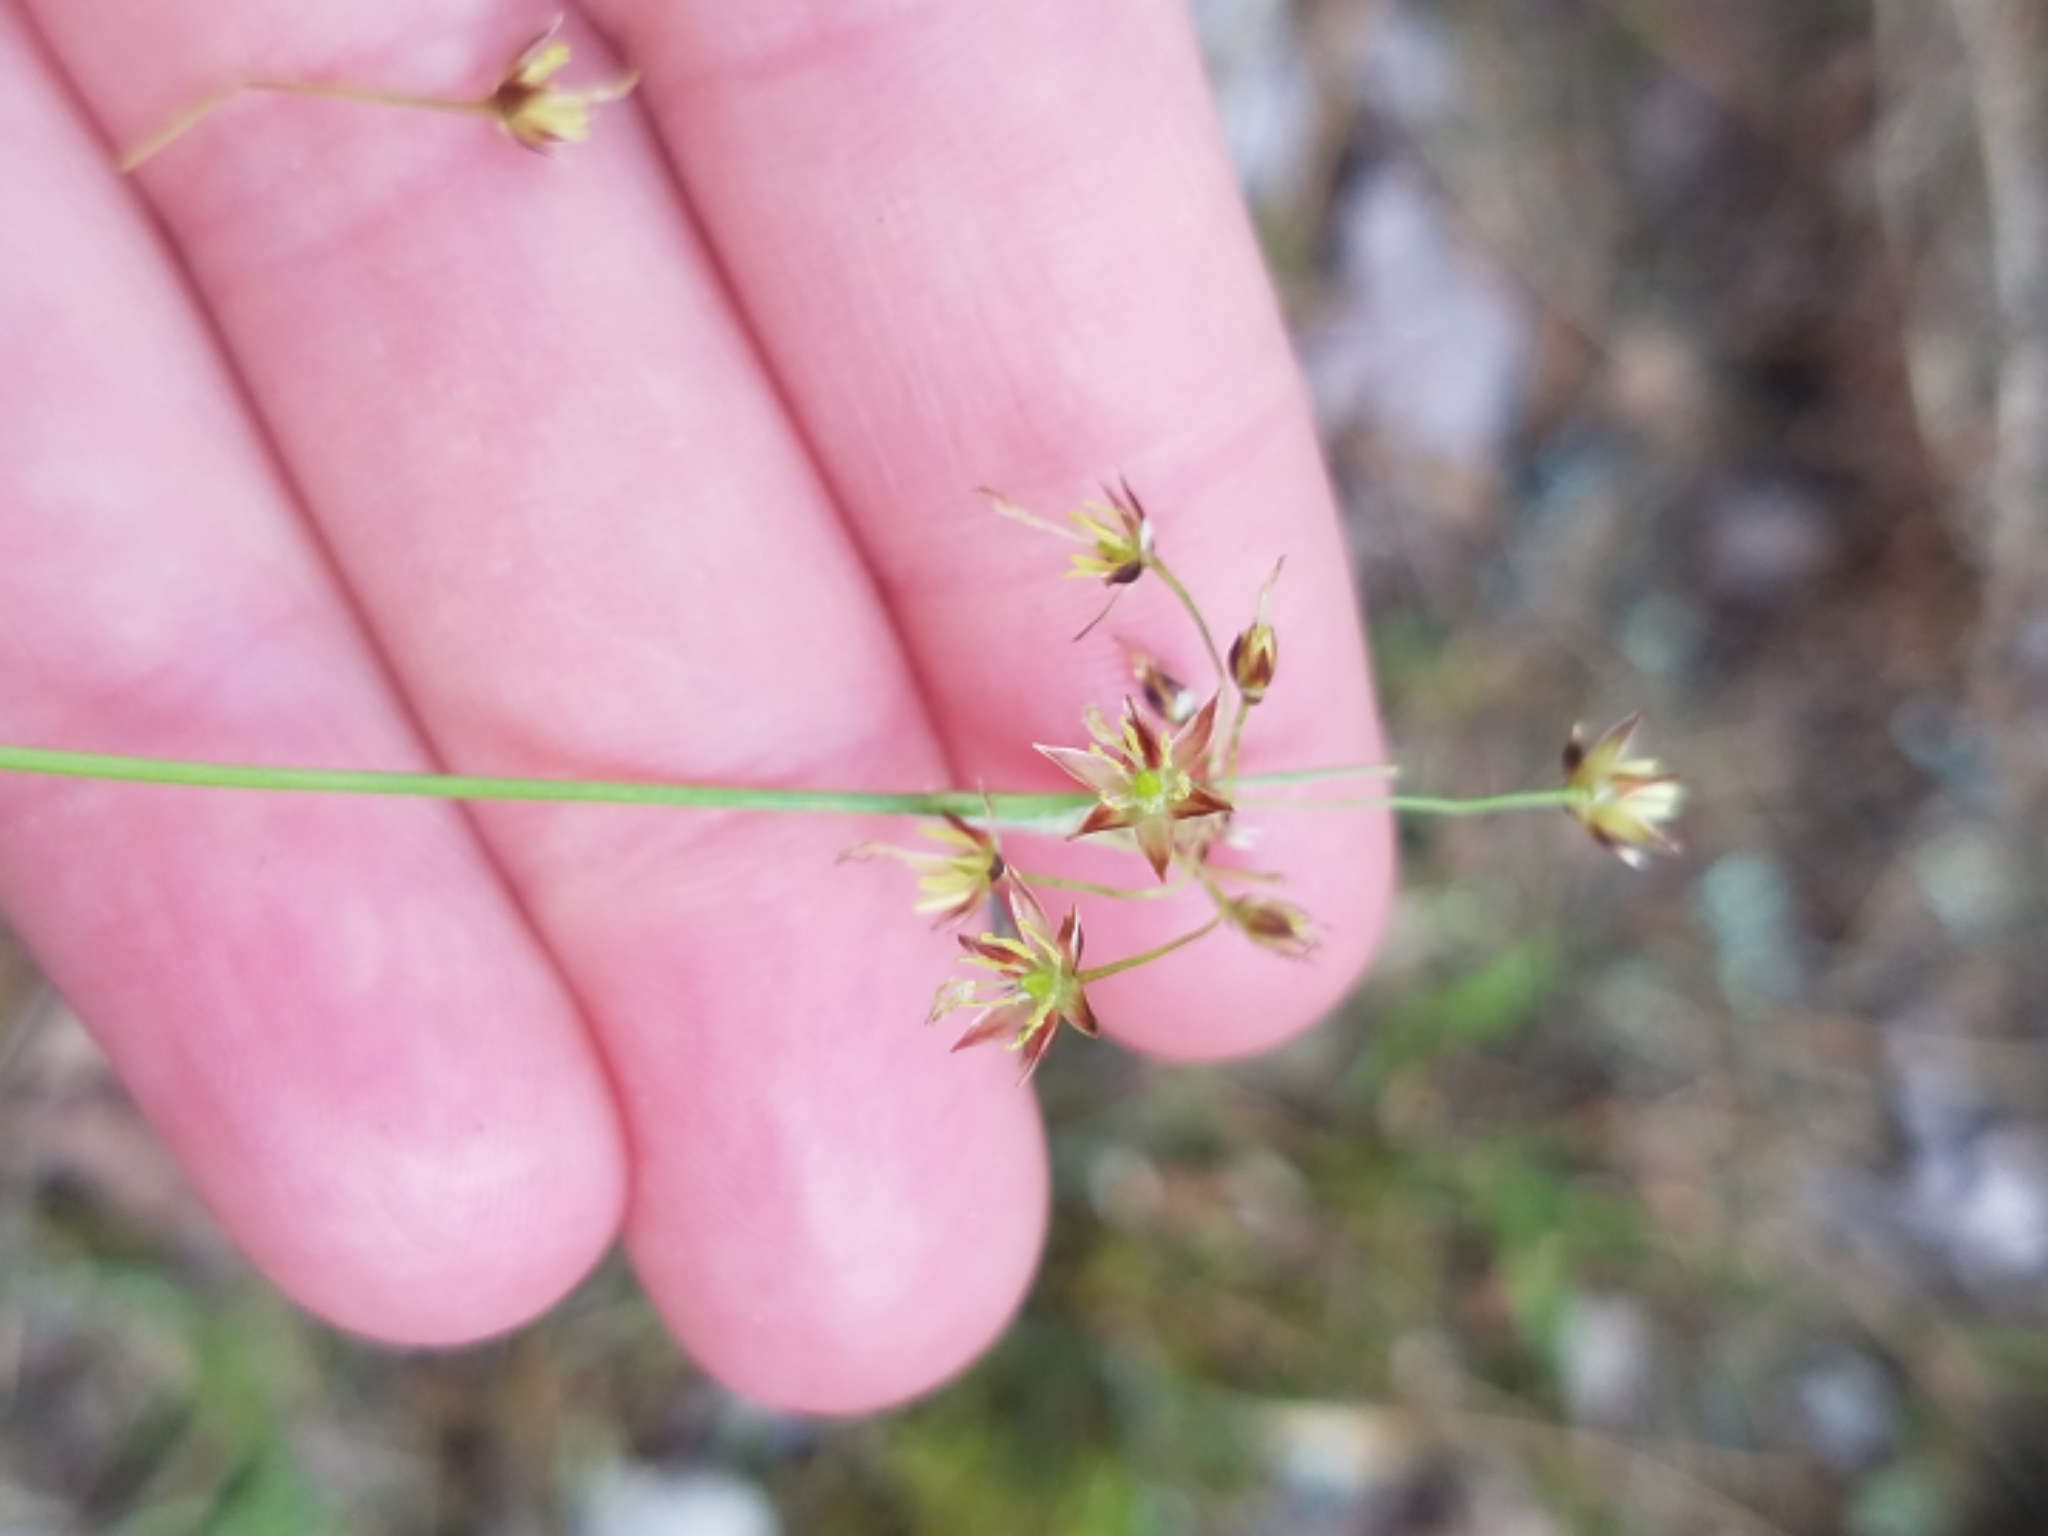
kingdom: Plantae
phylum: Tracheophyta
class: Liliopsida
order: Poales
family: Juncaceae
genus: Luzula
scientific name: Luzula acuminata
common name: Hairy woodrush
